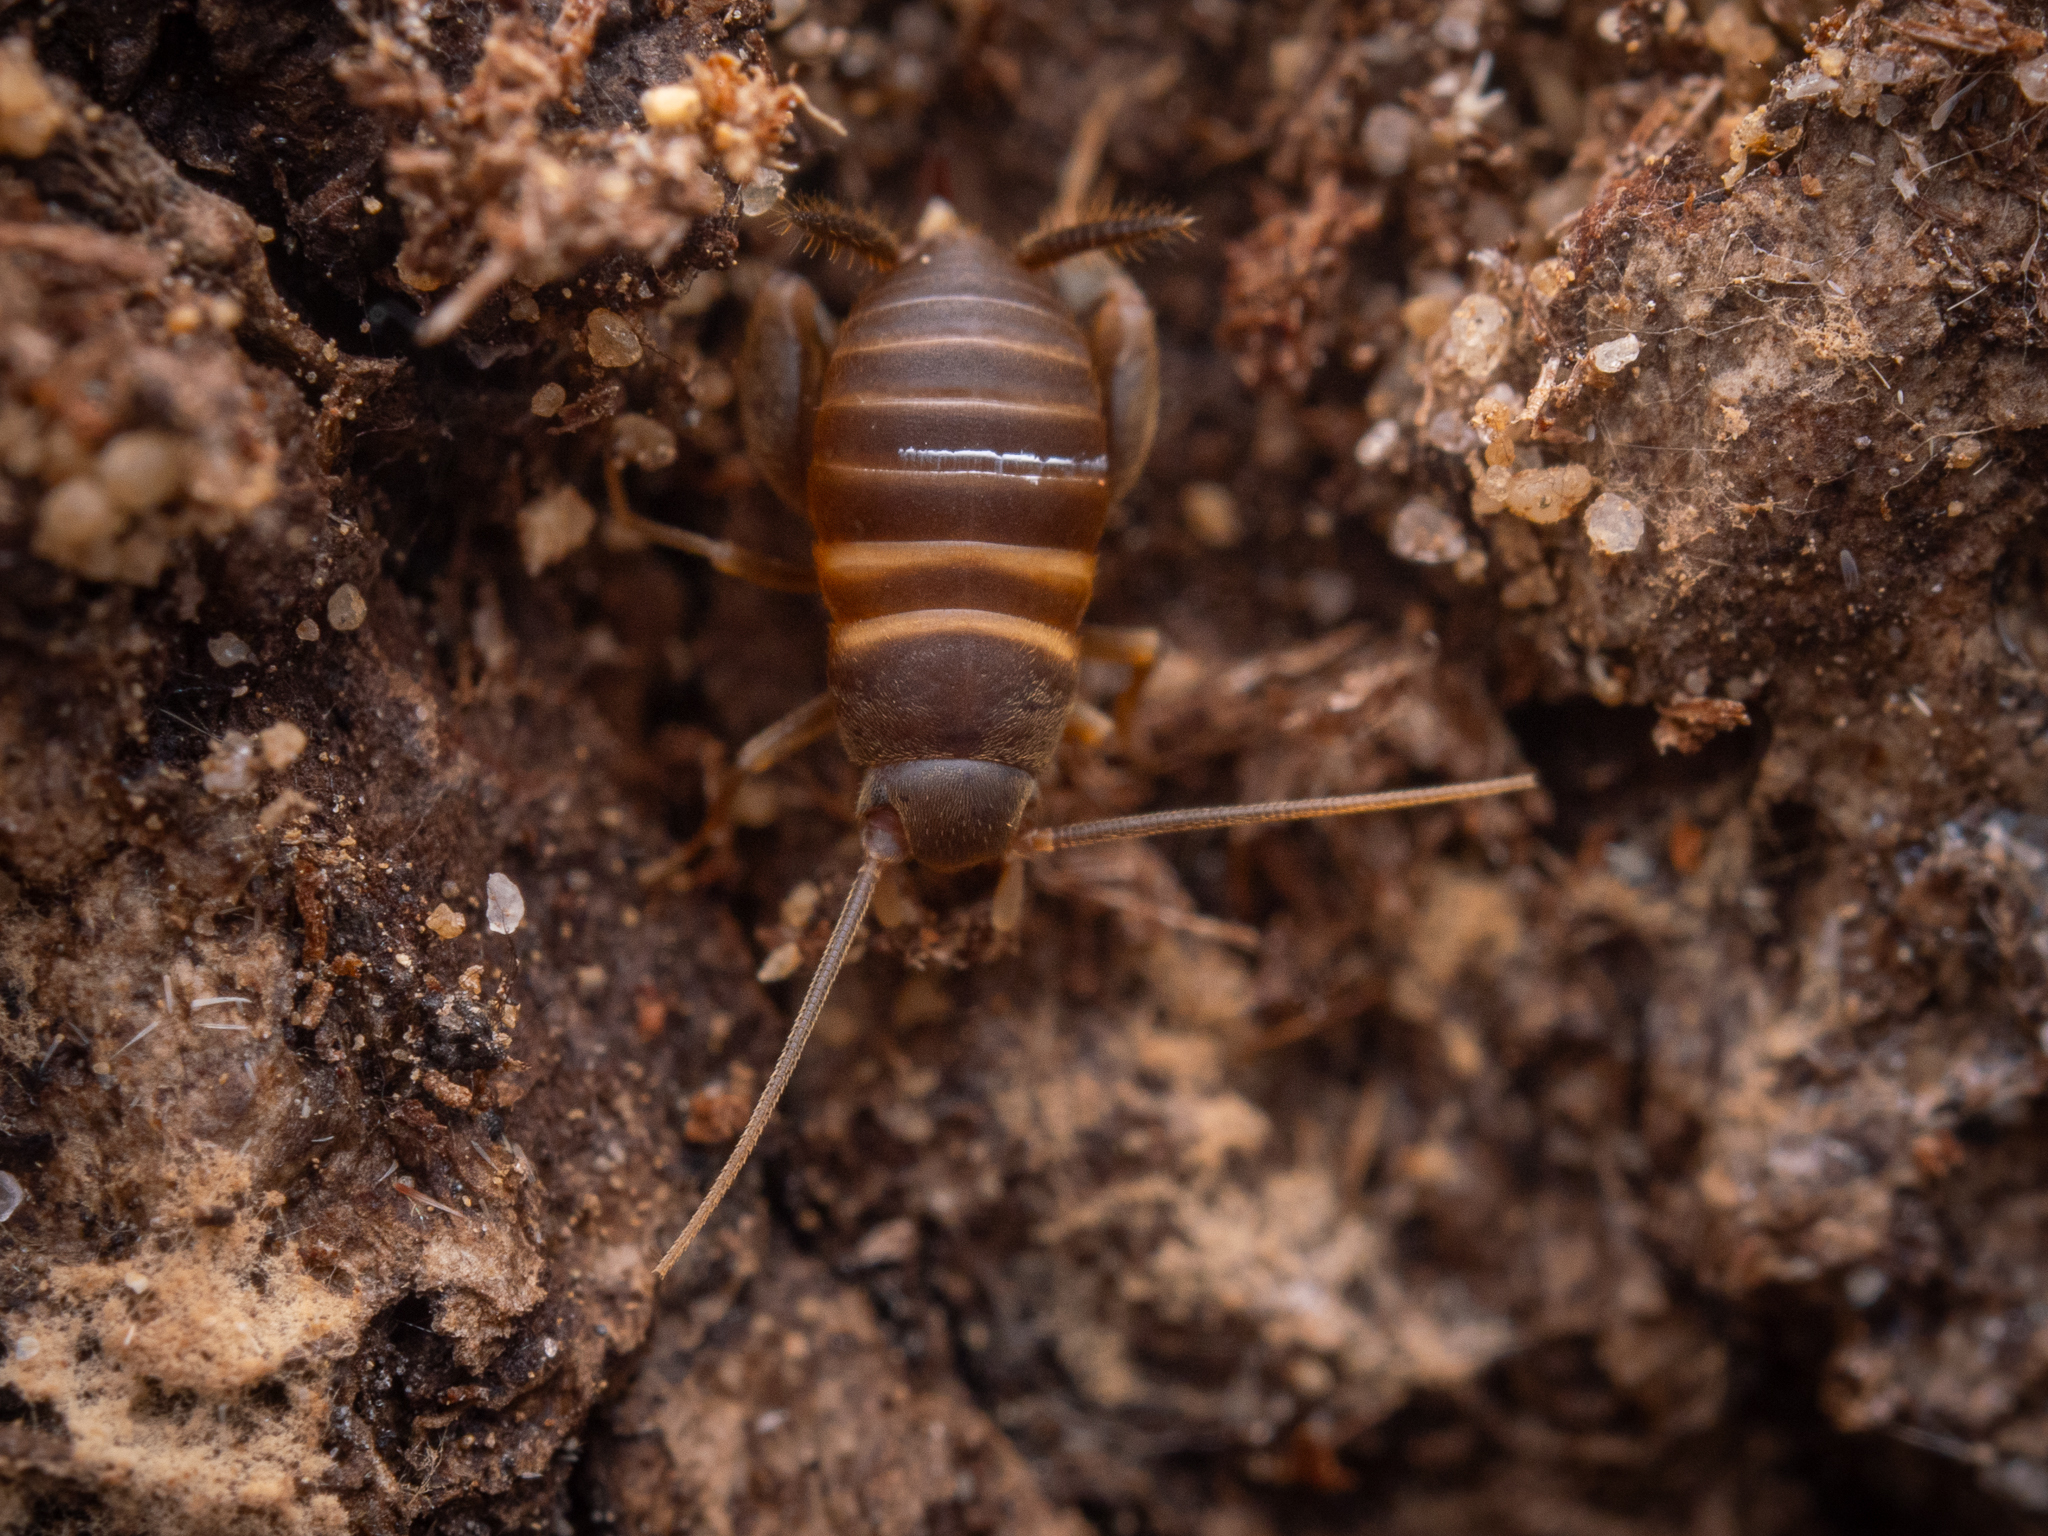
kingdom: Animalia
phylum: Arthropoda
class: Insecta
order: Orthoptera
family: Myrmecophilidae
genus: Myrmecophilus
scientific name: Myrmecophilus acervorum
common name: Ants-nest cricket
